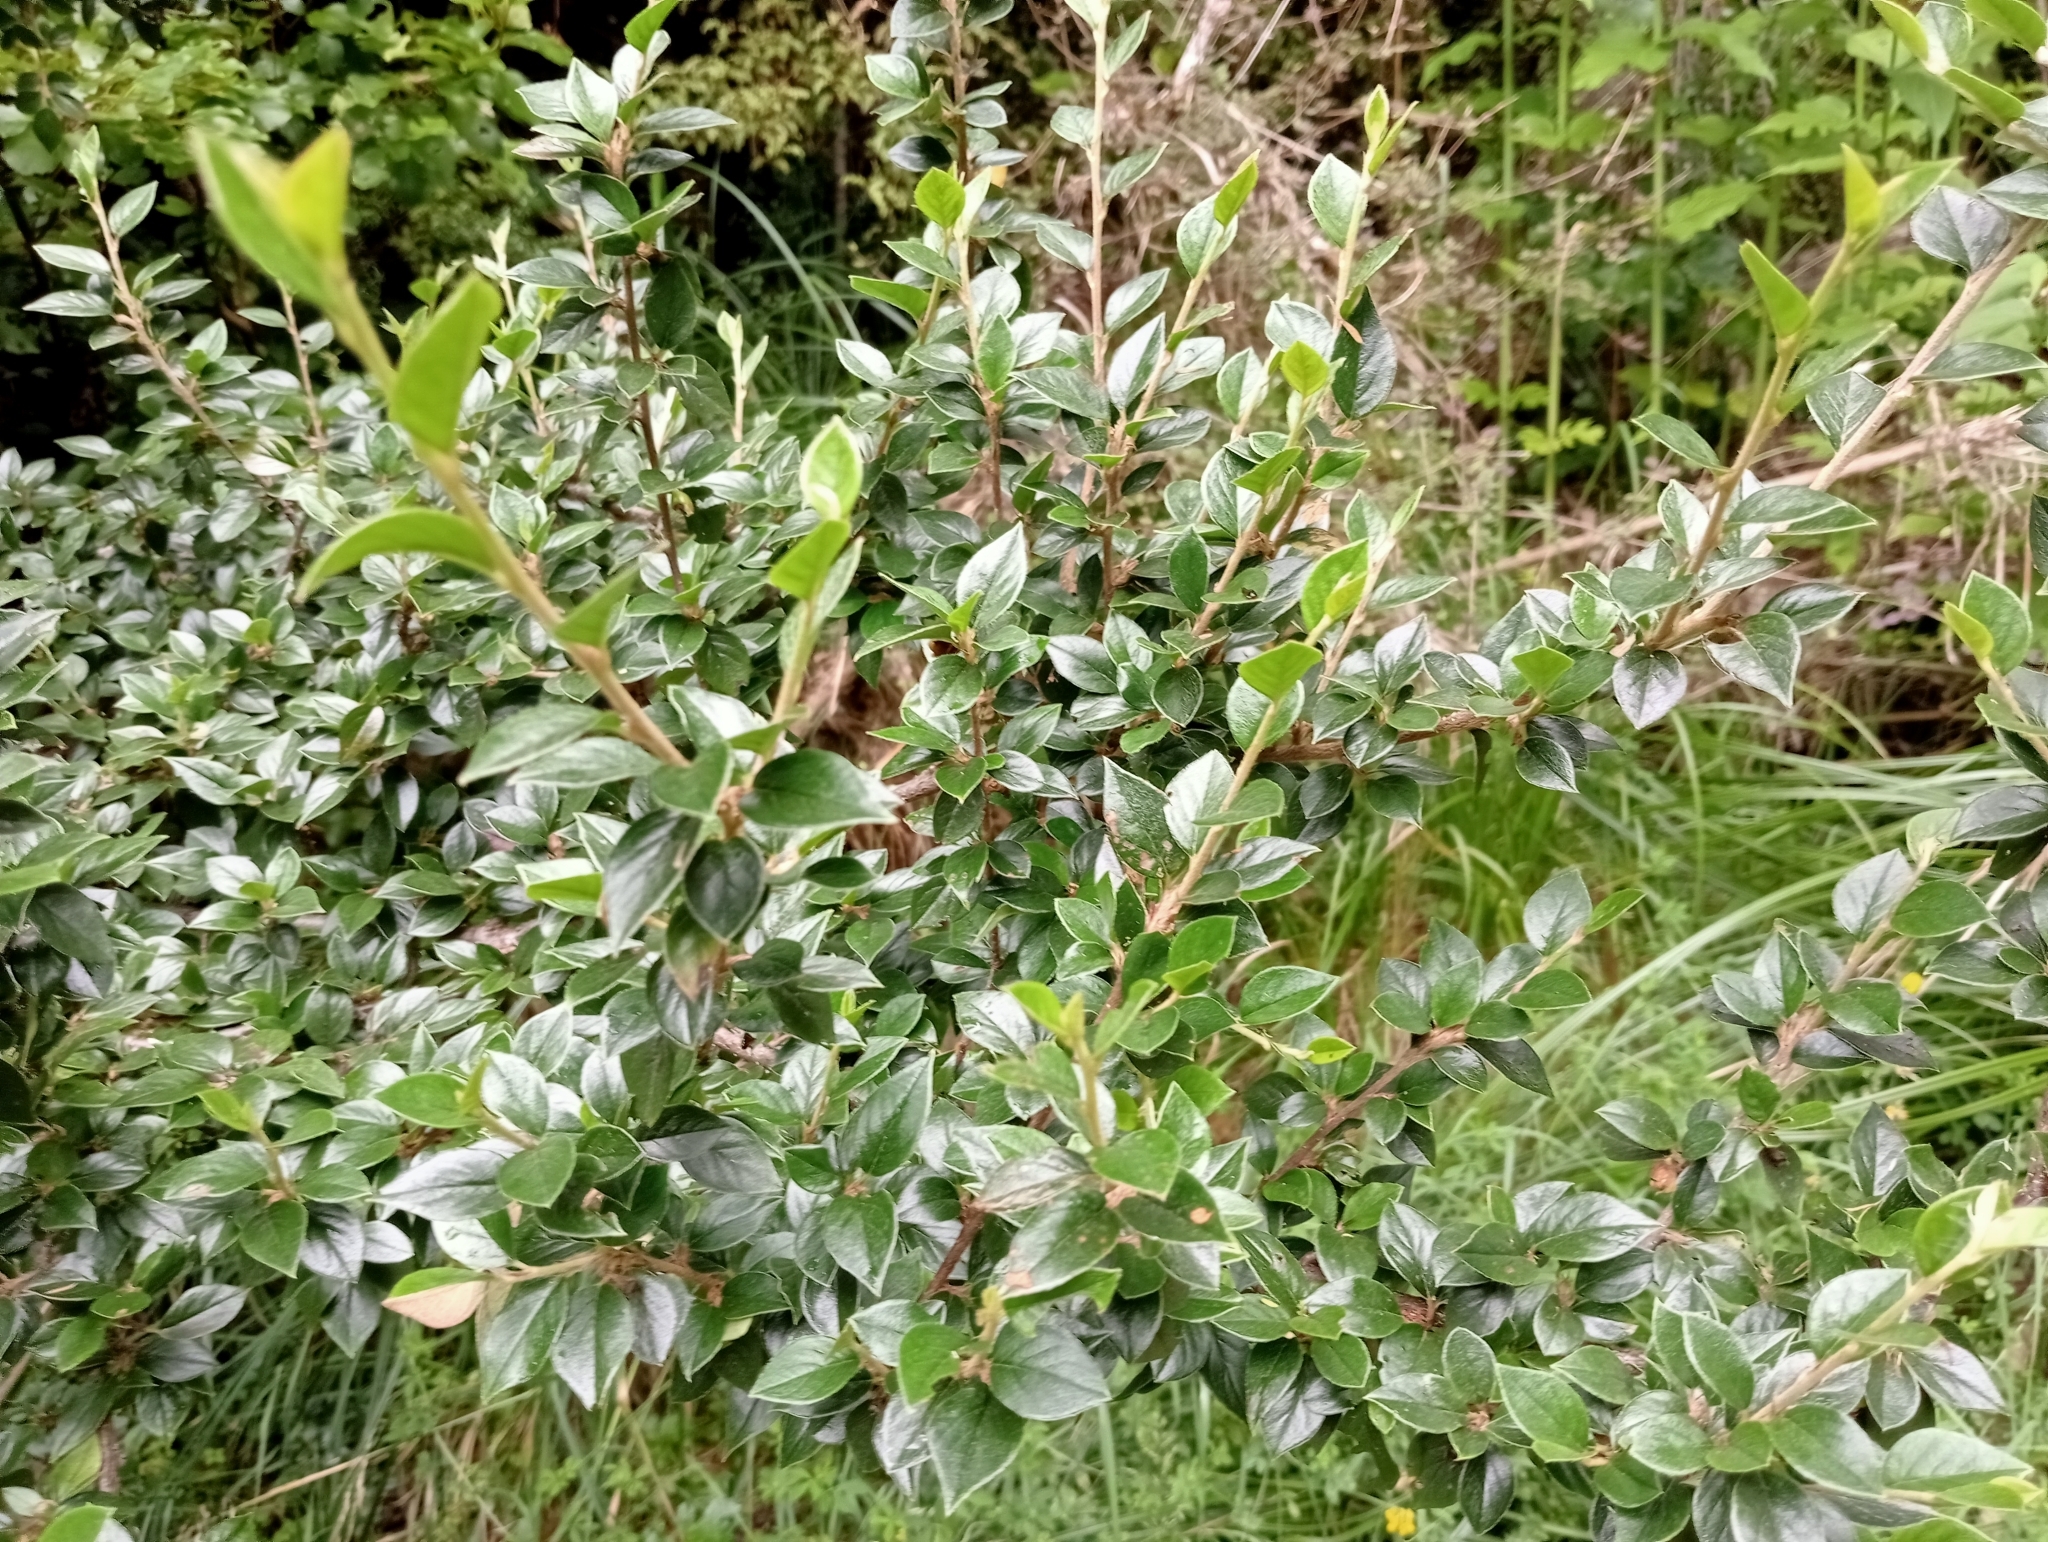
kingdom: Plantae
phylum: Tracheophyta
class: Magnoliopsida
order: Rosales
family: Rosaceae
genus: Cotoneaster
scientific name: Cotoneaster simonsii
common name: Himalayan cotoneaster
